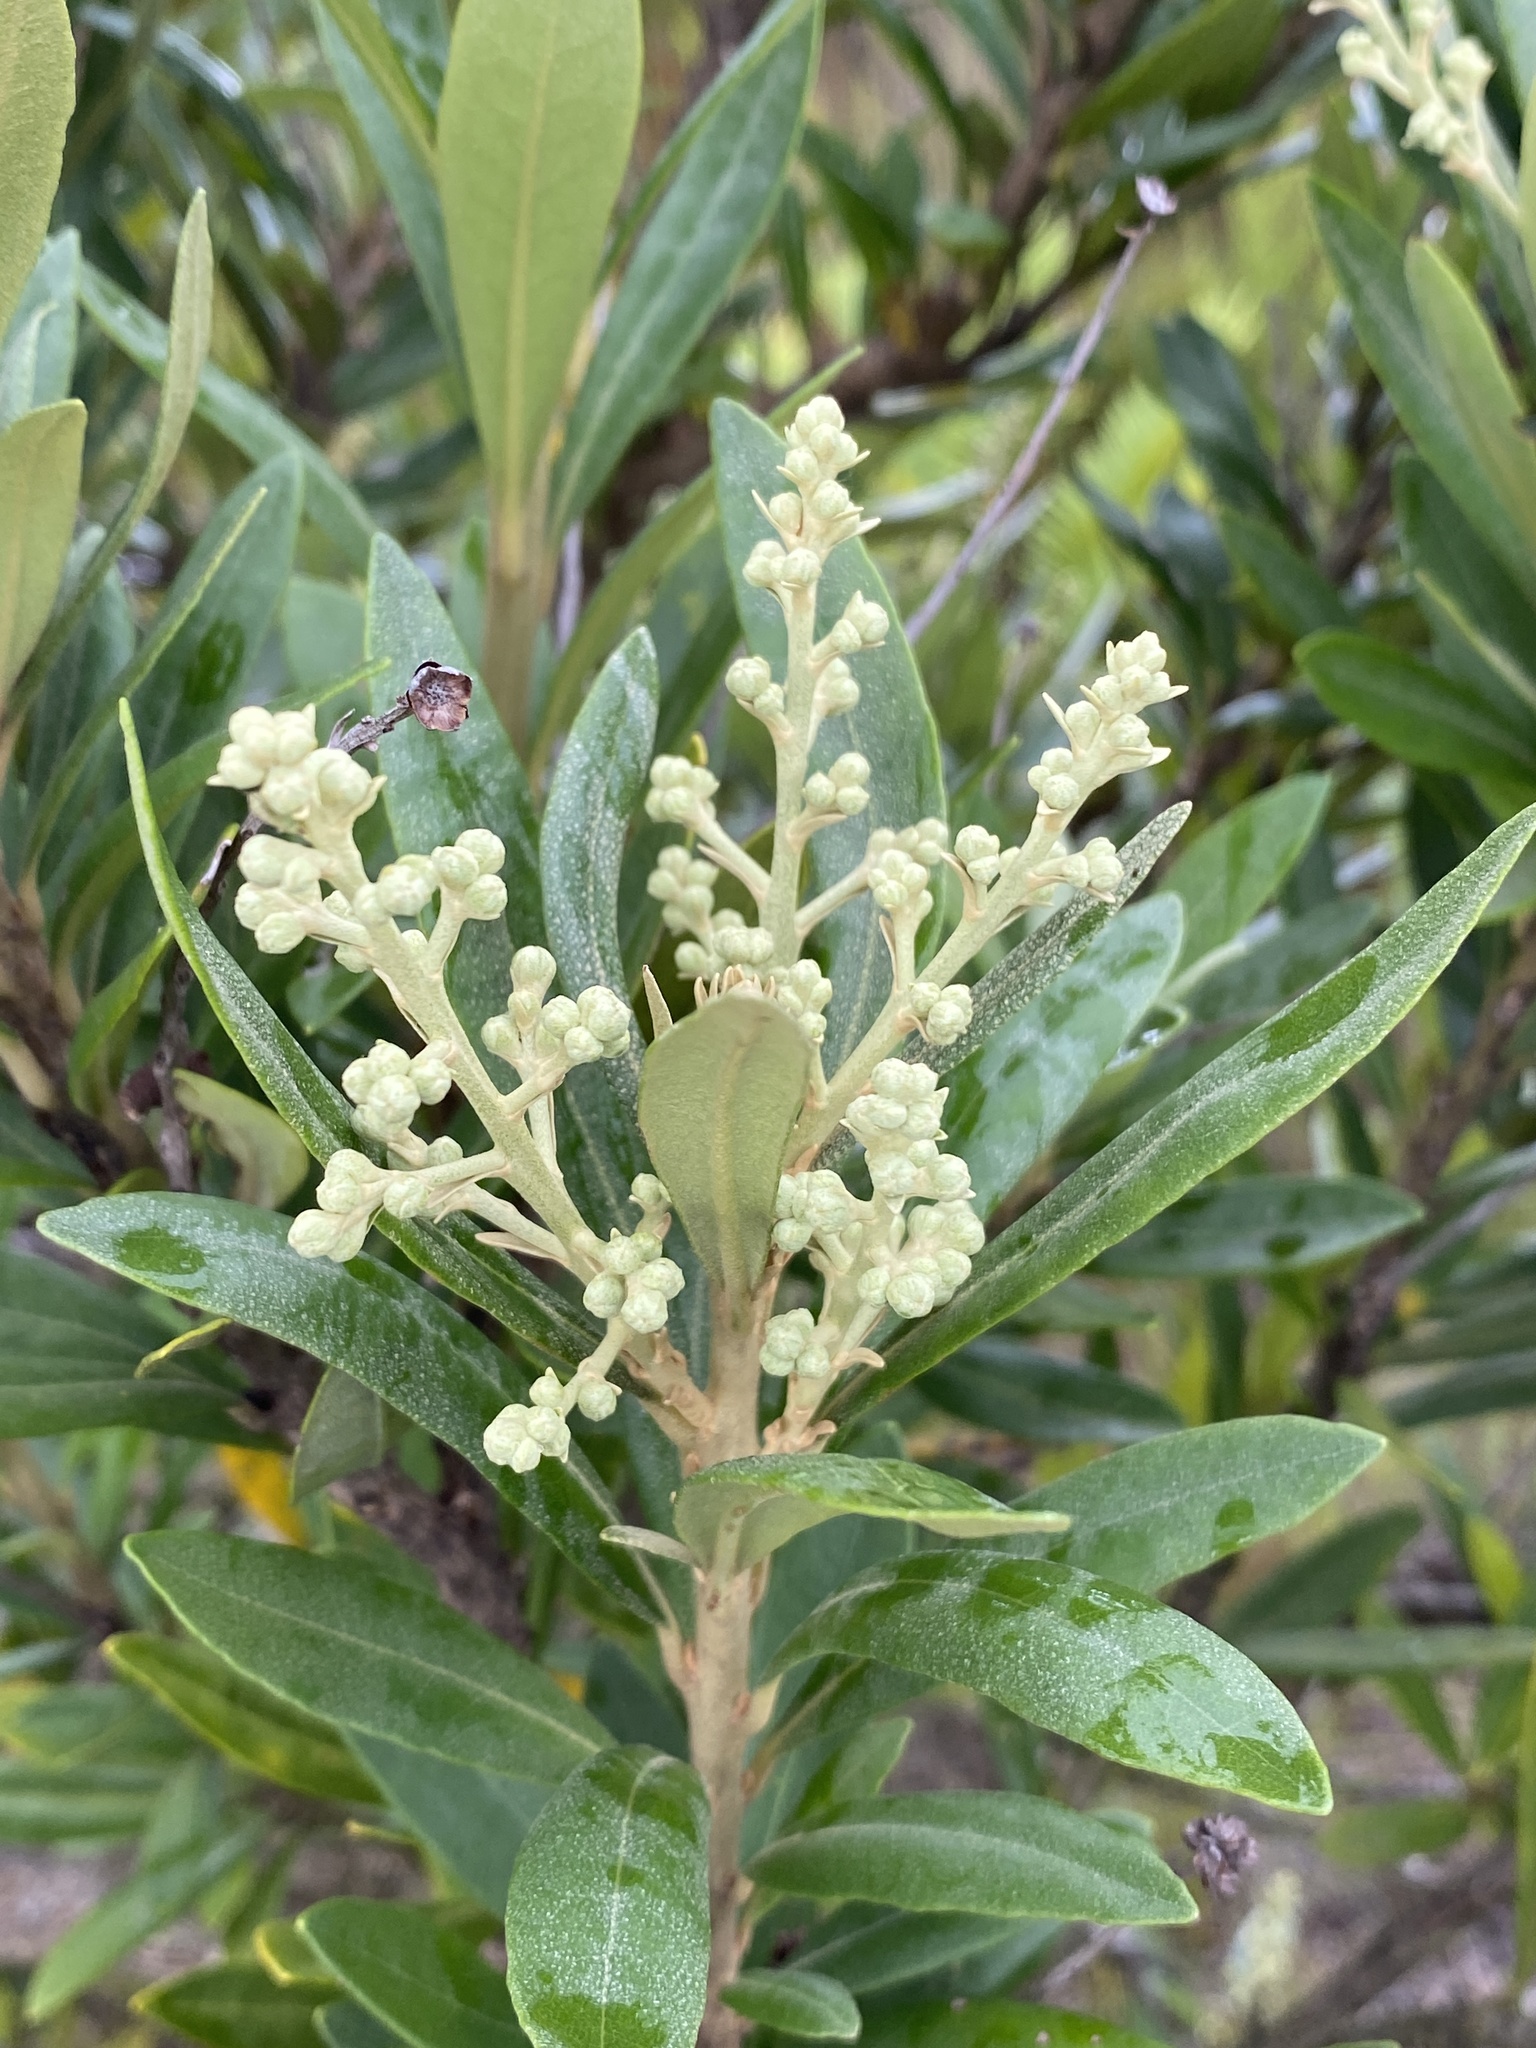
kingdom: Plantae
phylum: Tracheophyta
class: Magnoliopsida
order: Asterales
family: Asteraceae
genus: Brachylaena
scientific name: Brachylaena neriifolia
